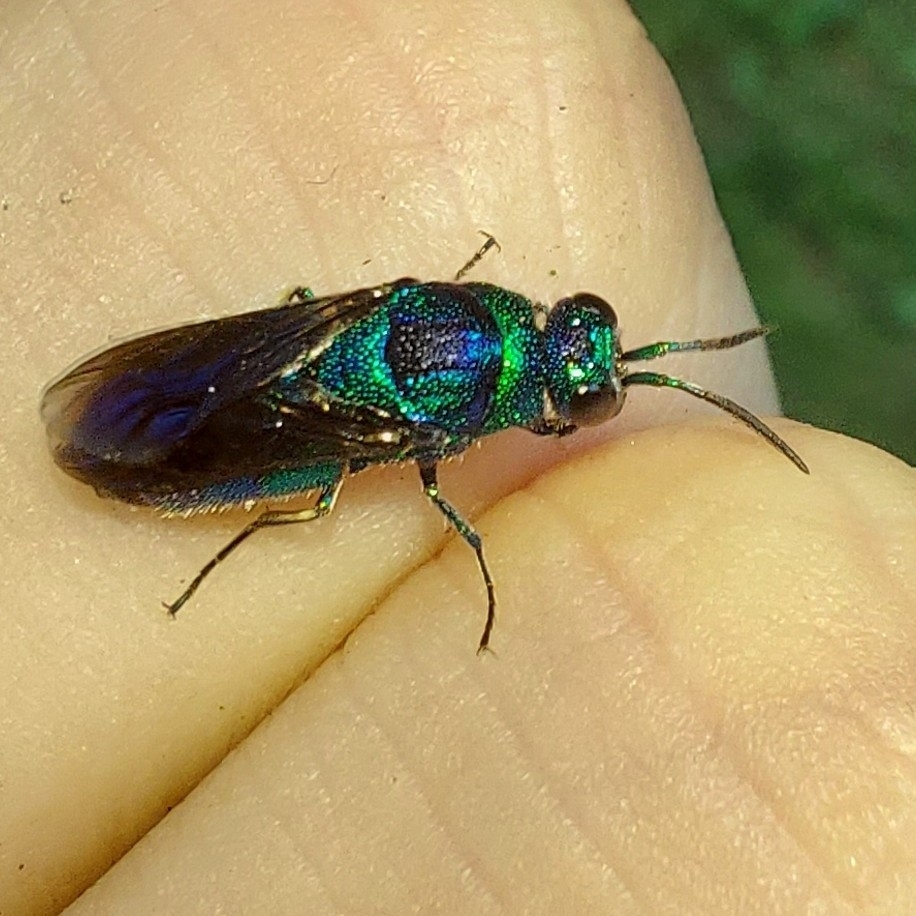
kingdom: Animalia
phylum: Arthropoda
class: Insecta
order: Hymenoptera
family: Chrysididae
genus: Chrysis
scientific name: Chrysis angolensis
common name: Cuckoo wasp
